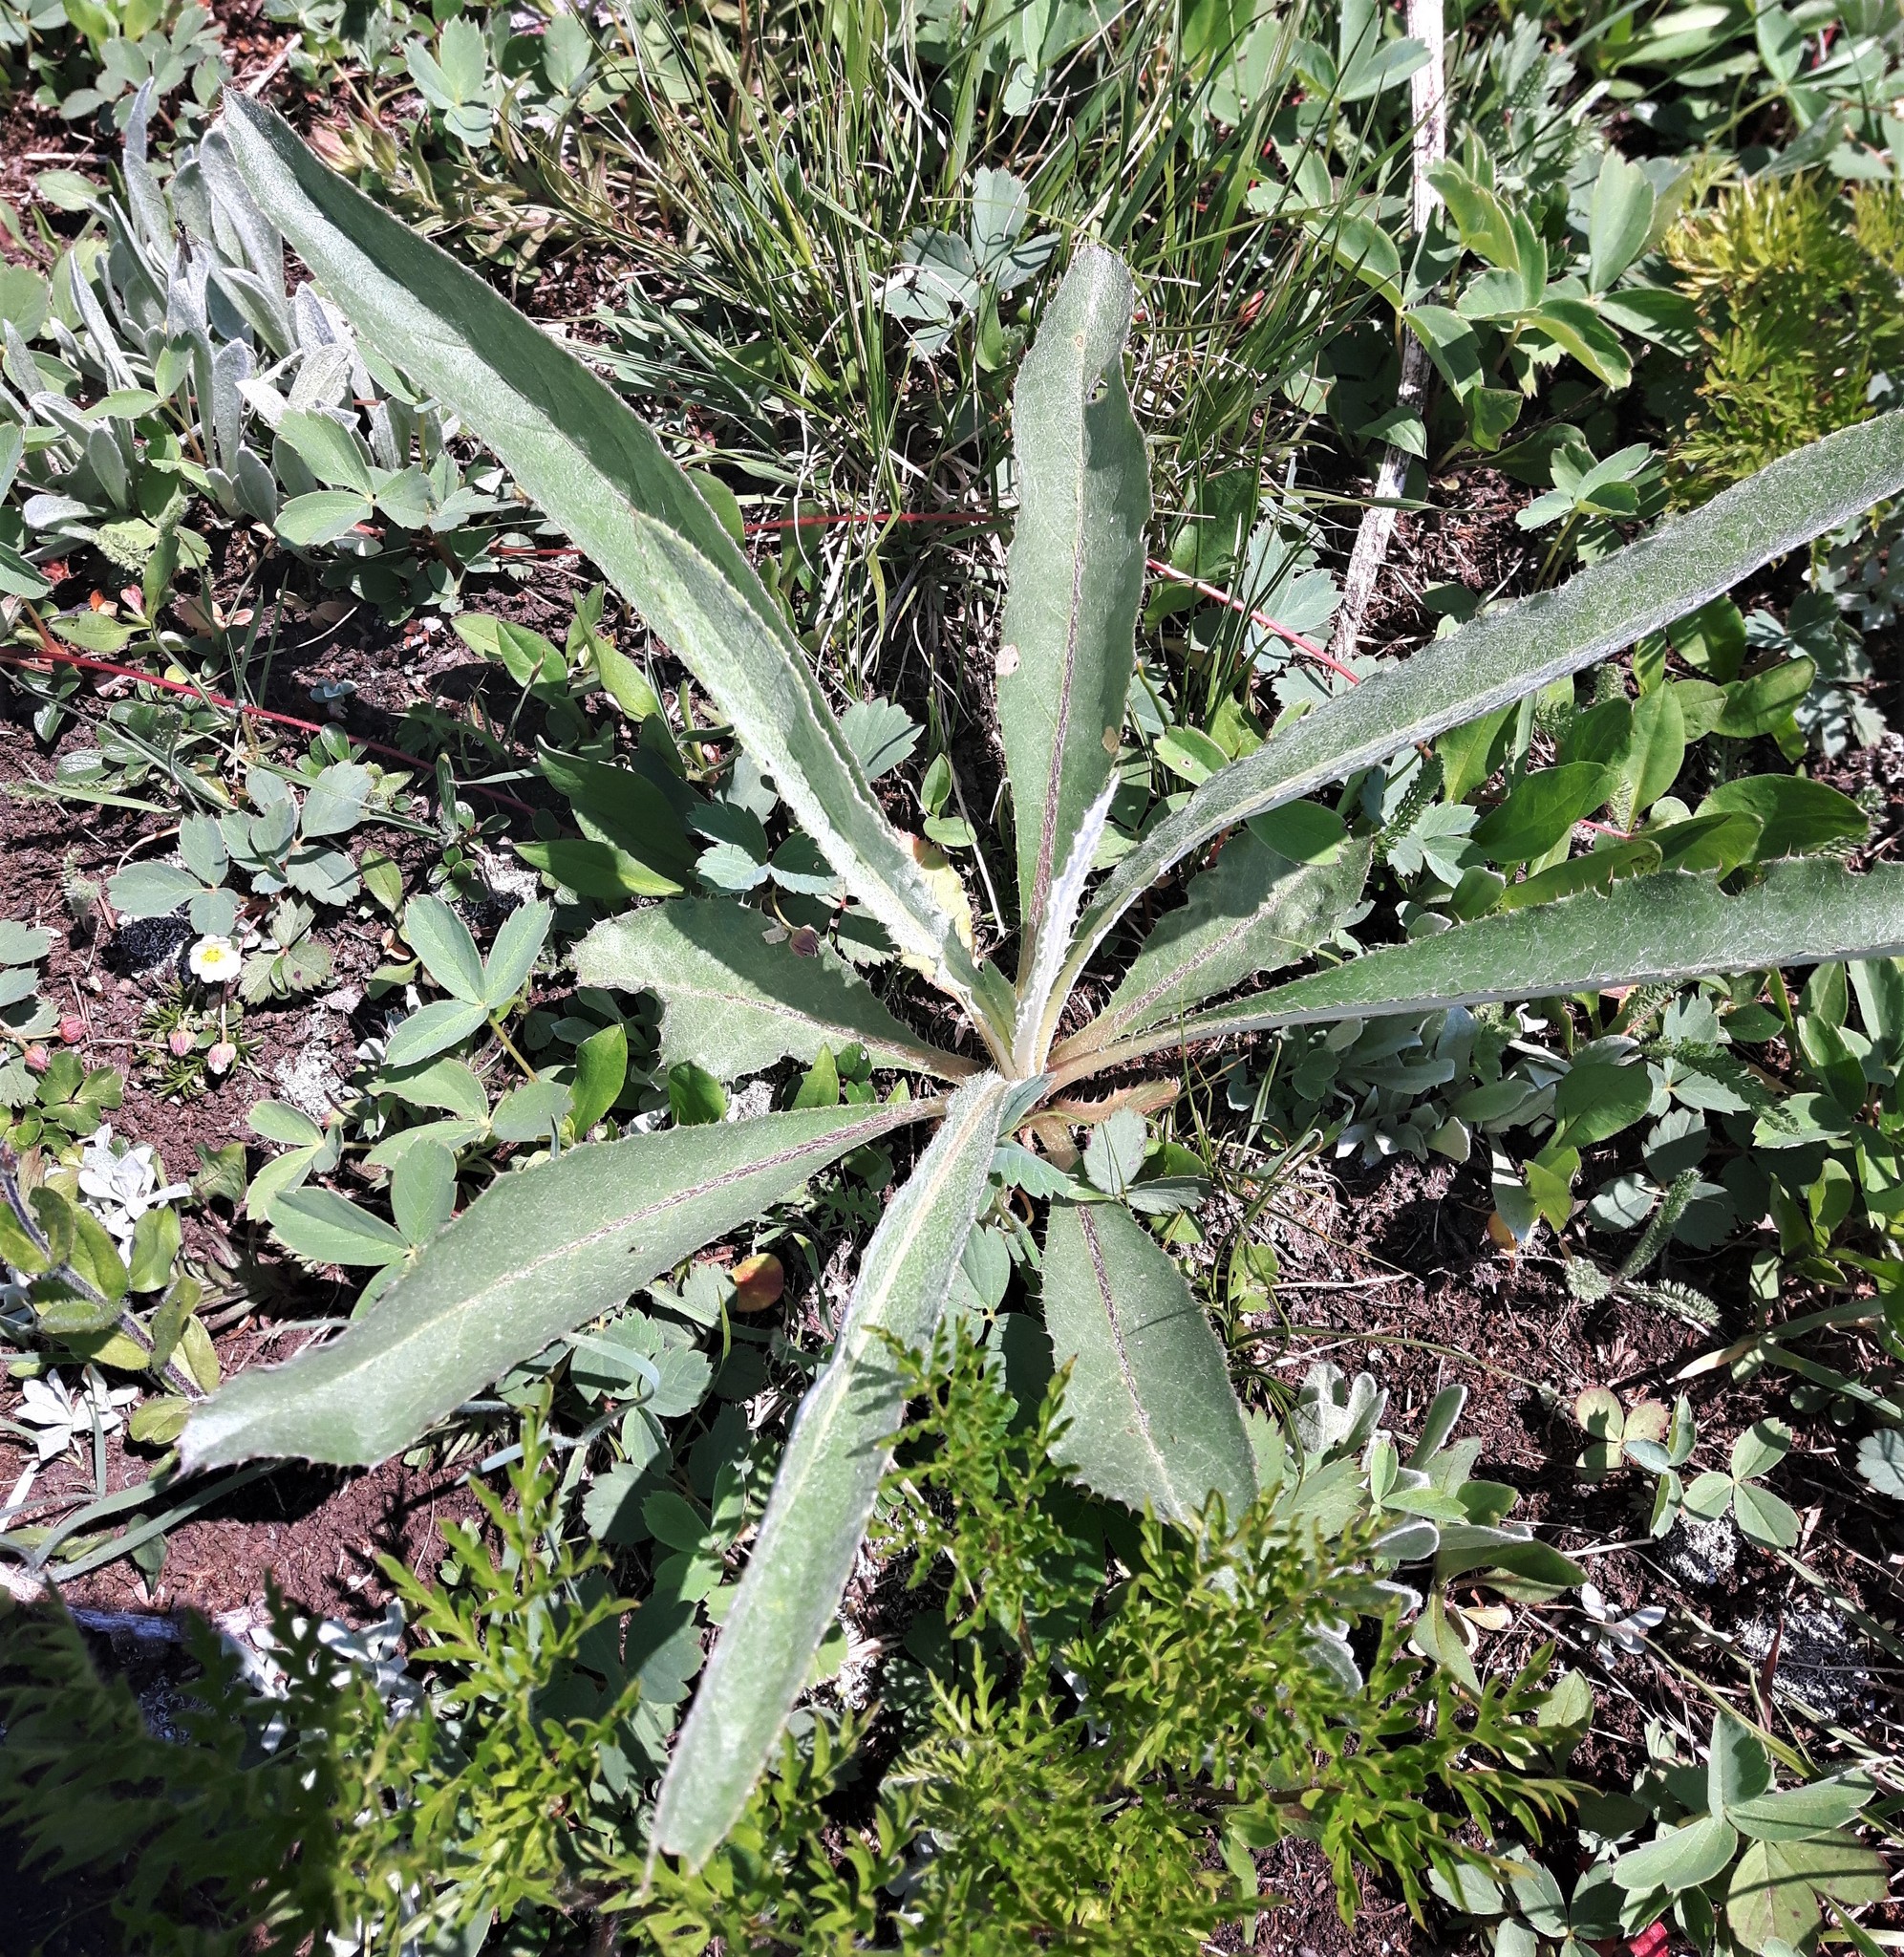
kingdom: Plantae
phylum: Tracheophyta
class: Magnoliopsida
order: Asterales
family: Asteraceae
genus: Cirsium
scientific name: Cirsium hookerianum
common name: Hooker's thistle
